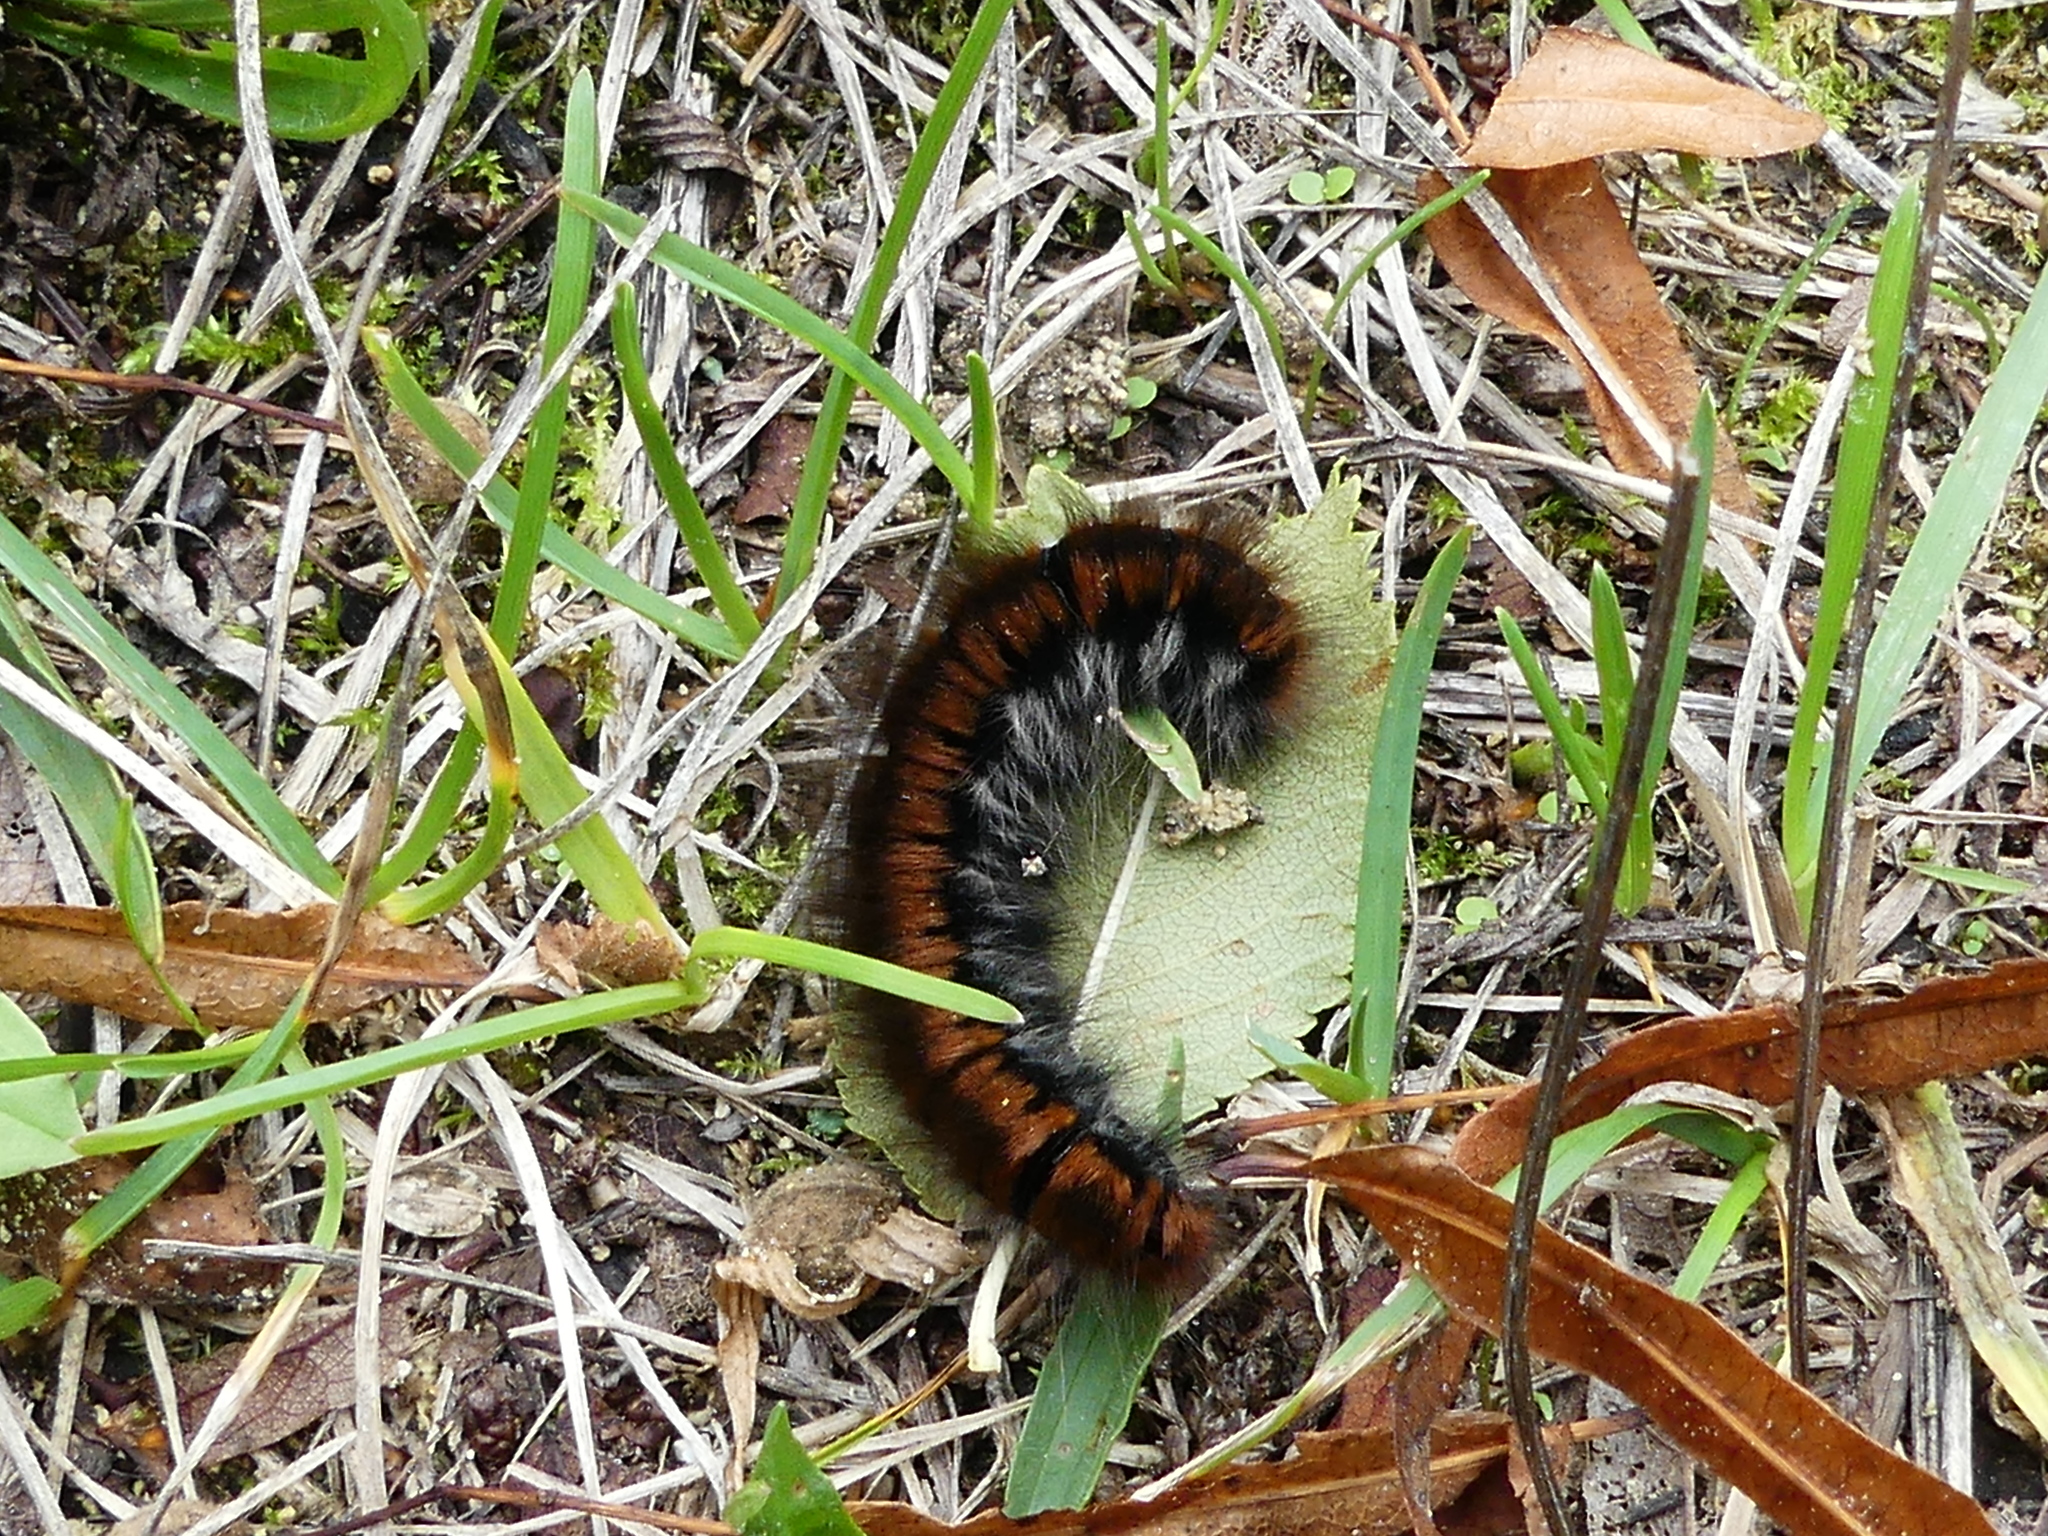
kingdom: Animalia
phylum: Arthropoda
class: Insecta
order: Lepidoptera
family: Lasiocampidae
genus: Macrothylacia
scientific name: Macrothylacia rubi
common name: Fox moth
